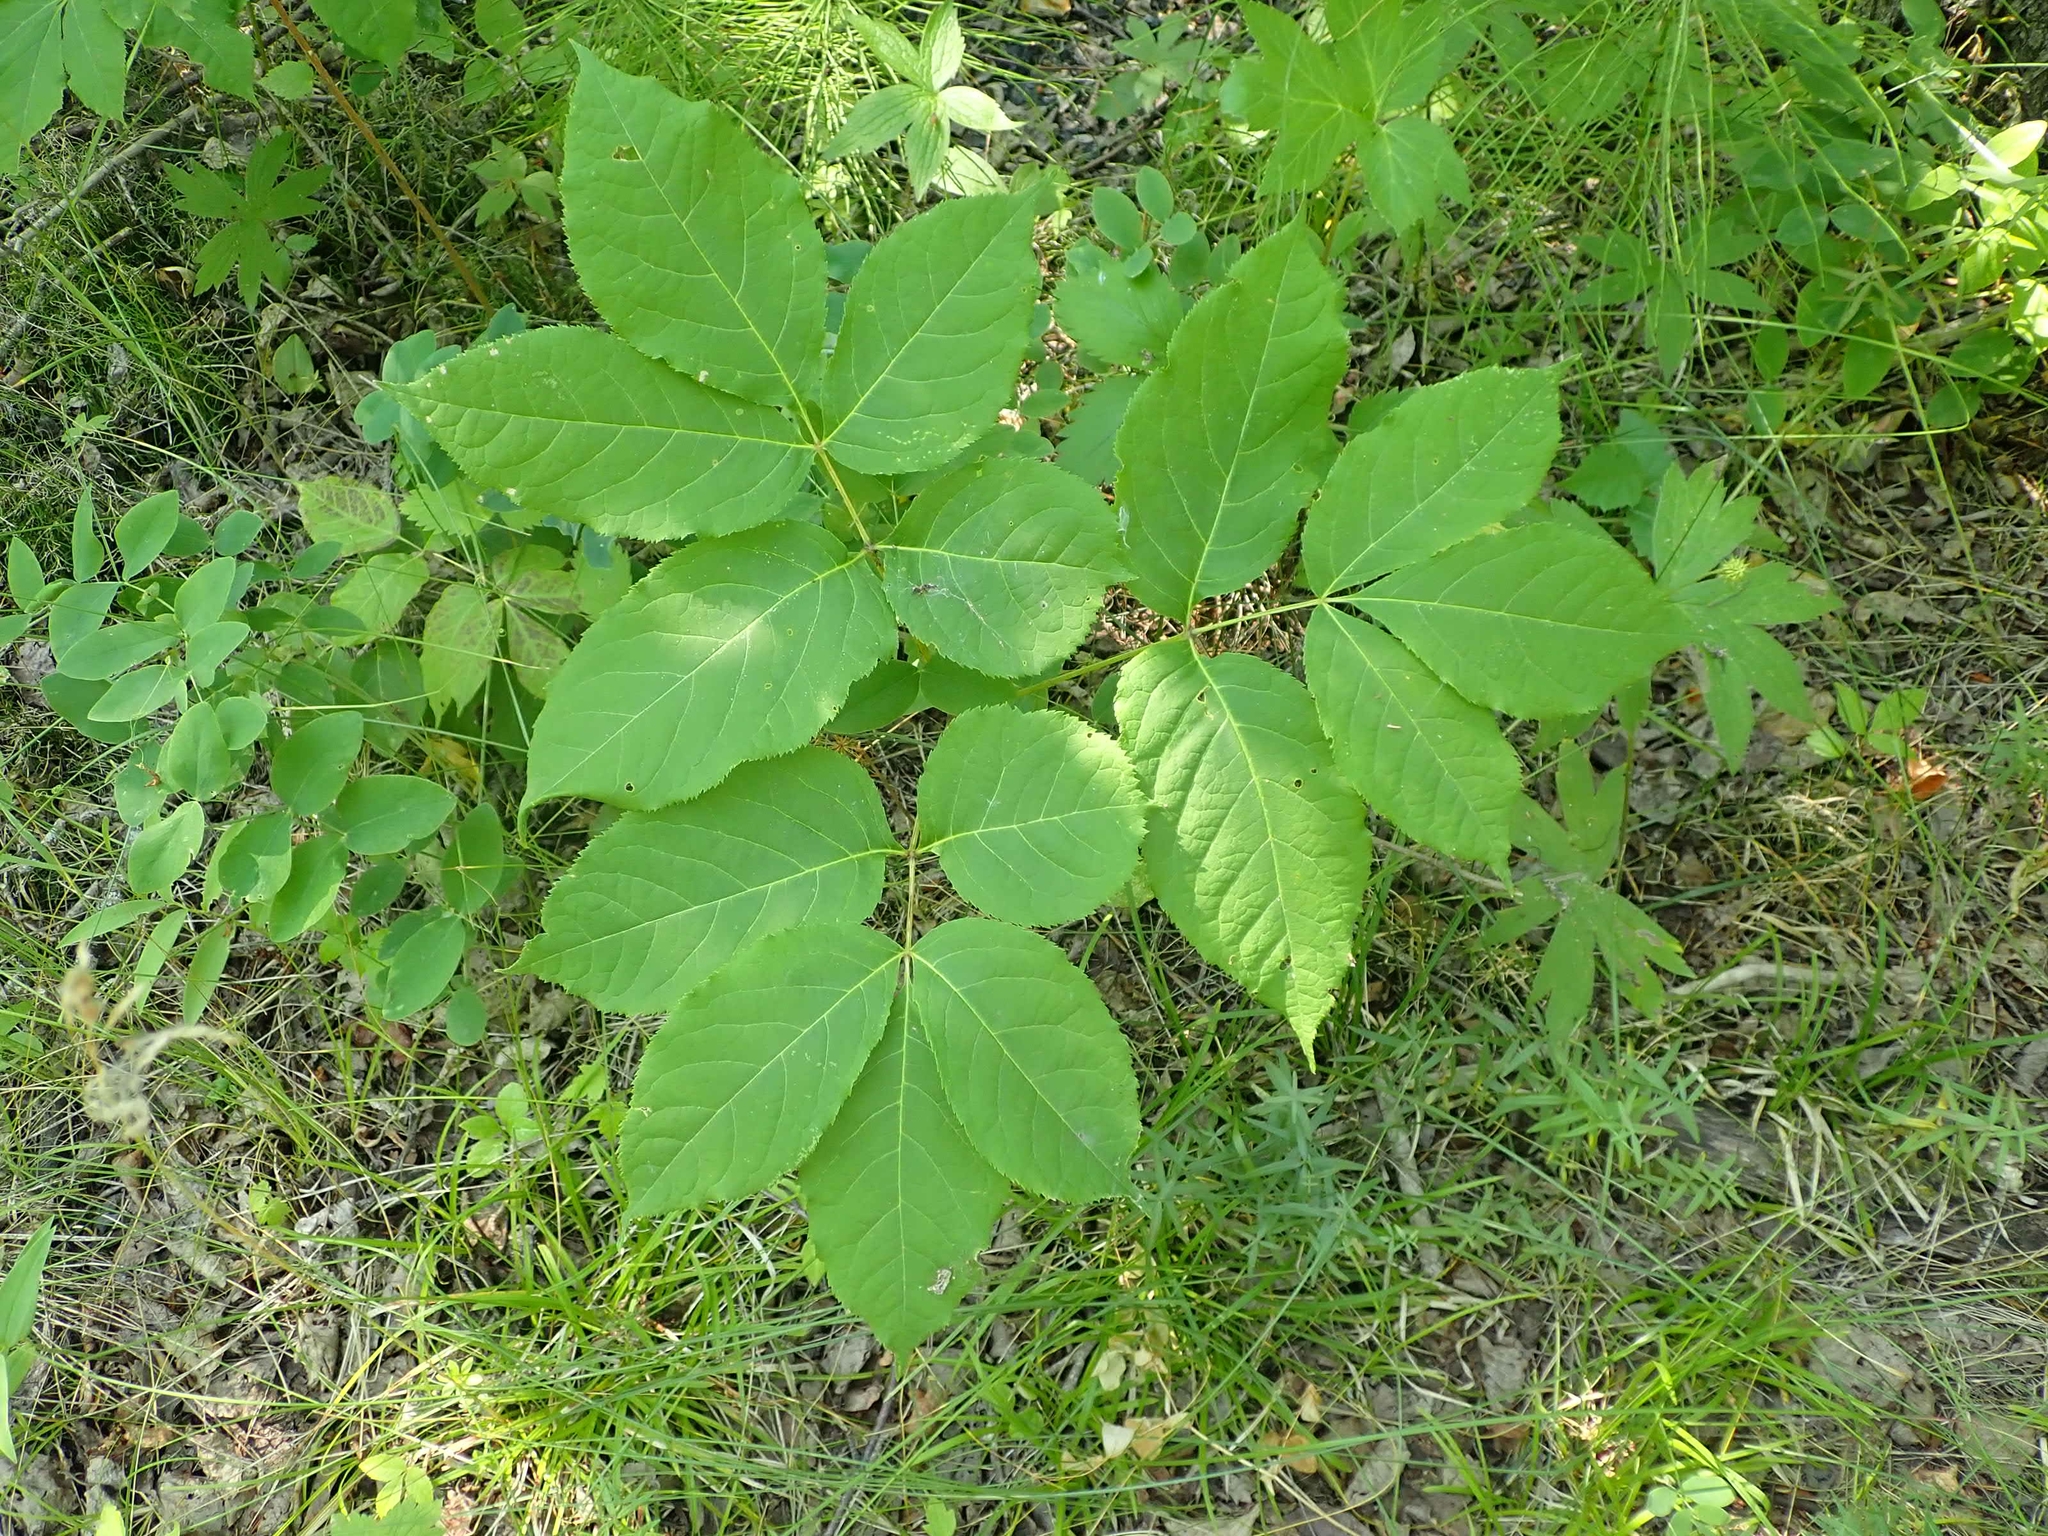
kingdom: Plantae
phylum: Tracheophyta
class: Magnoliopsida
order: Apiales
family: Araliaceae
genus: Aralia
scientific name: Aralia nudicaulis
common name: Wild sarsaparilla
